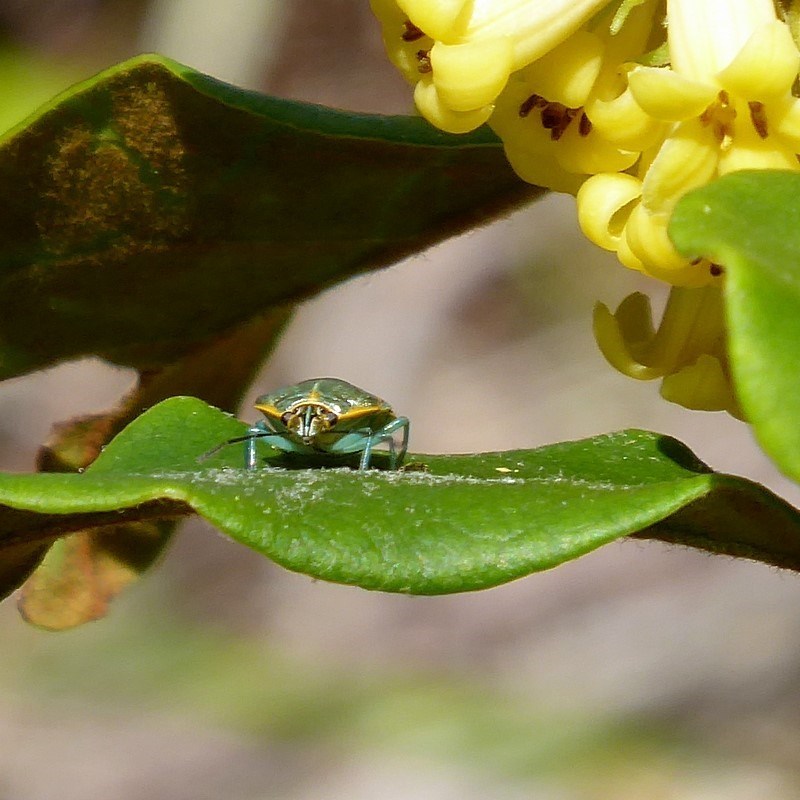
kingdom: Animalia
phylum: Arthropoda
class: Insecta
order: Hemiptera
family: Pentatomidae
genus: Antestiopsis
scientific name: Antestiopsis
